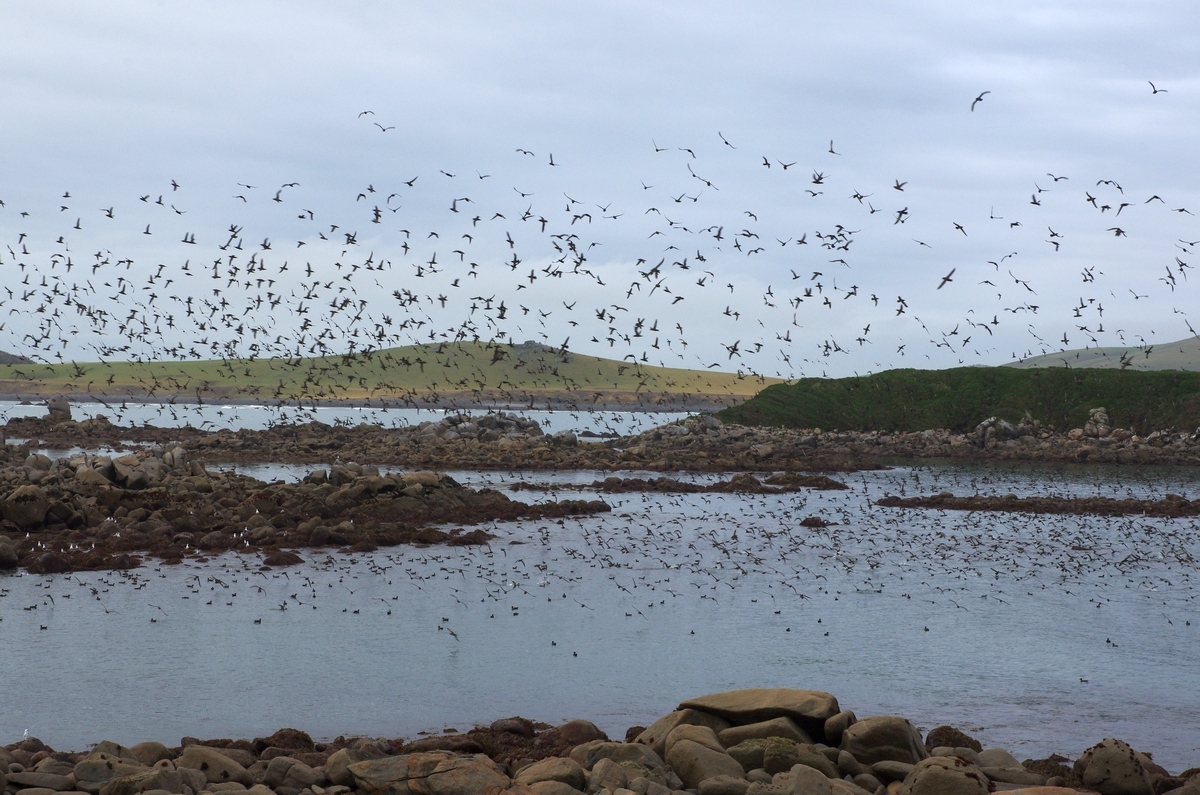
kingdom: Animalia
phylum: Chordata
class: Aves
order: Procellariiformes
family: Procellariidae
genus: Puffinus
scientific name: Puffinus griseus
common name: Sooty shearwater
